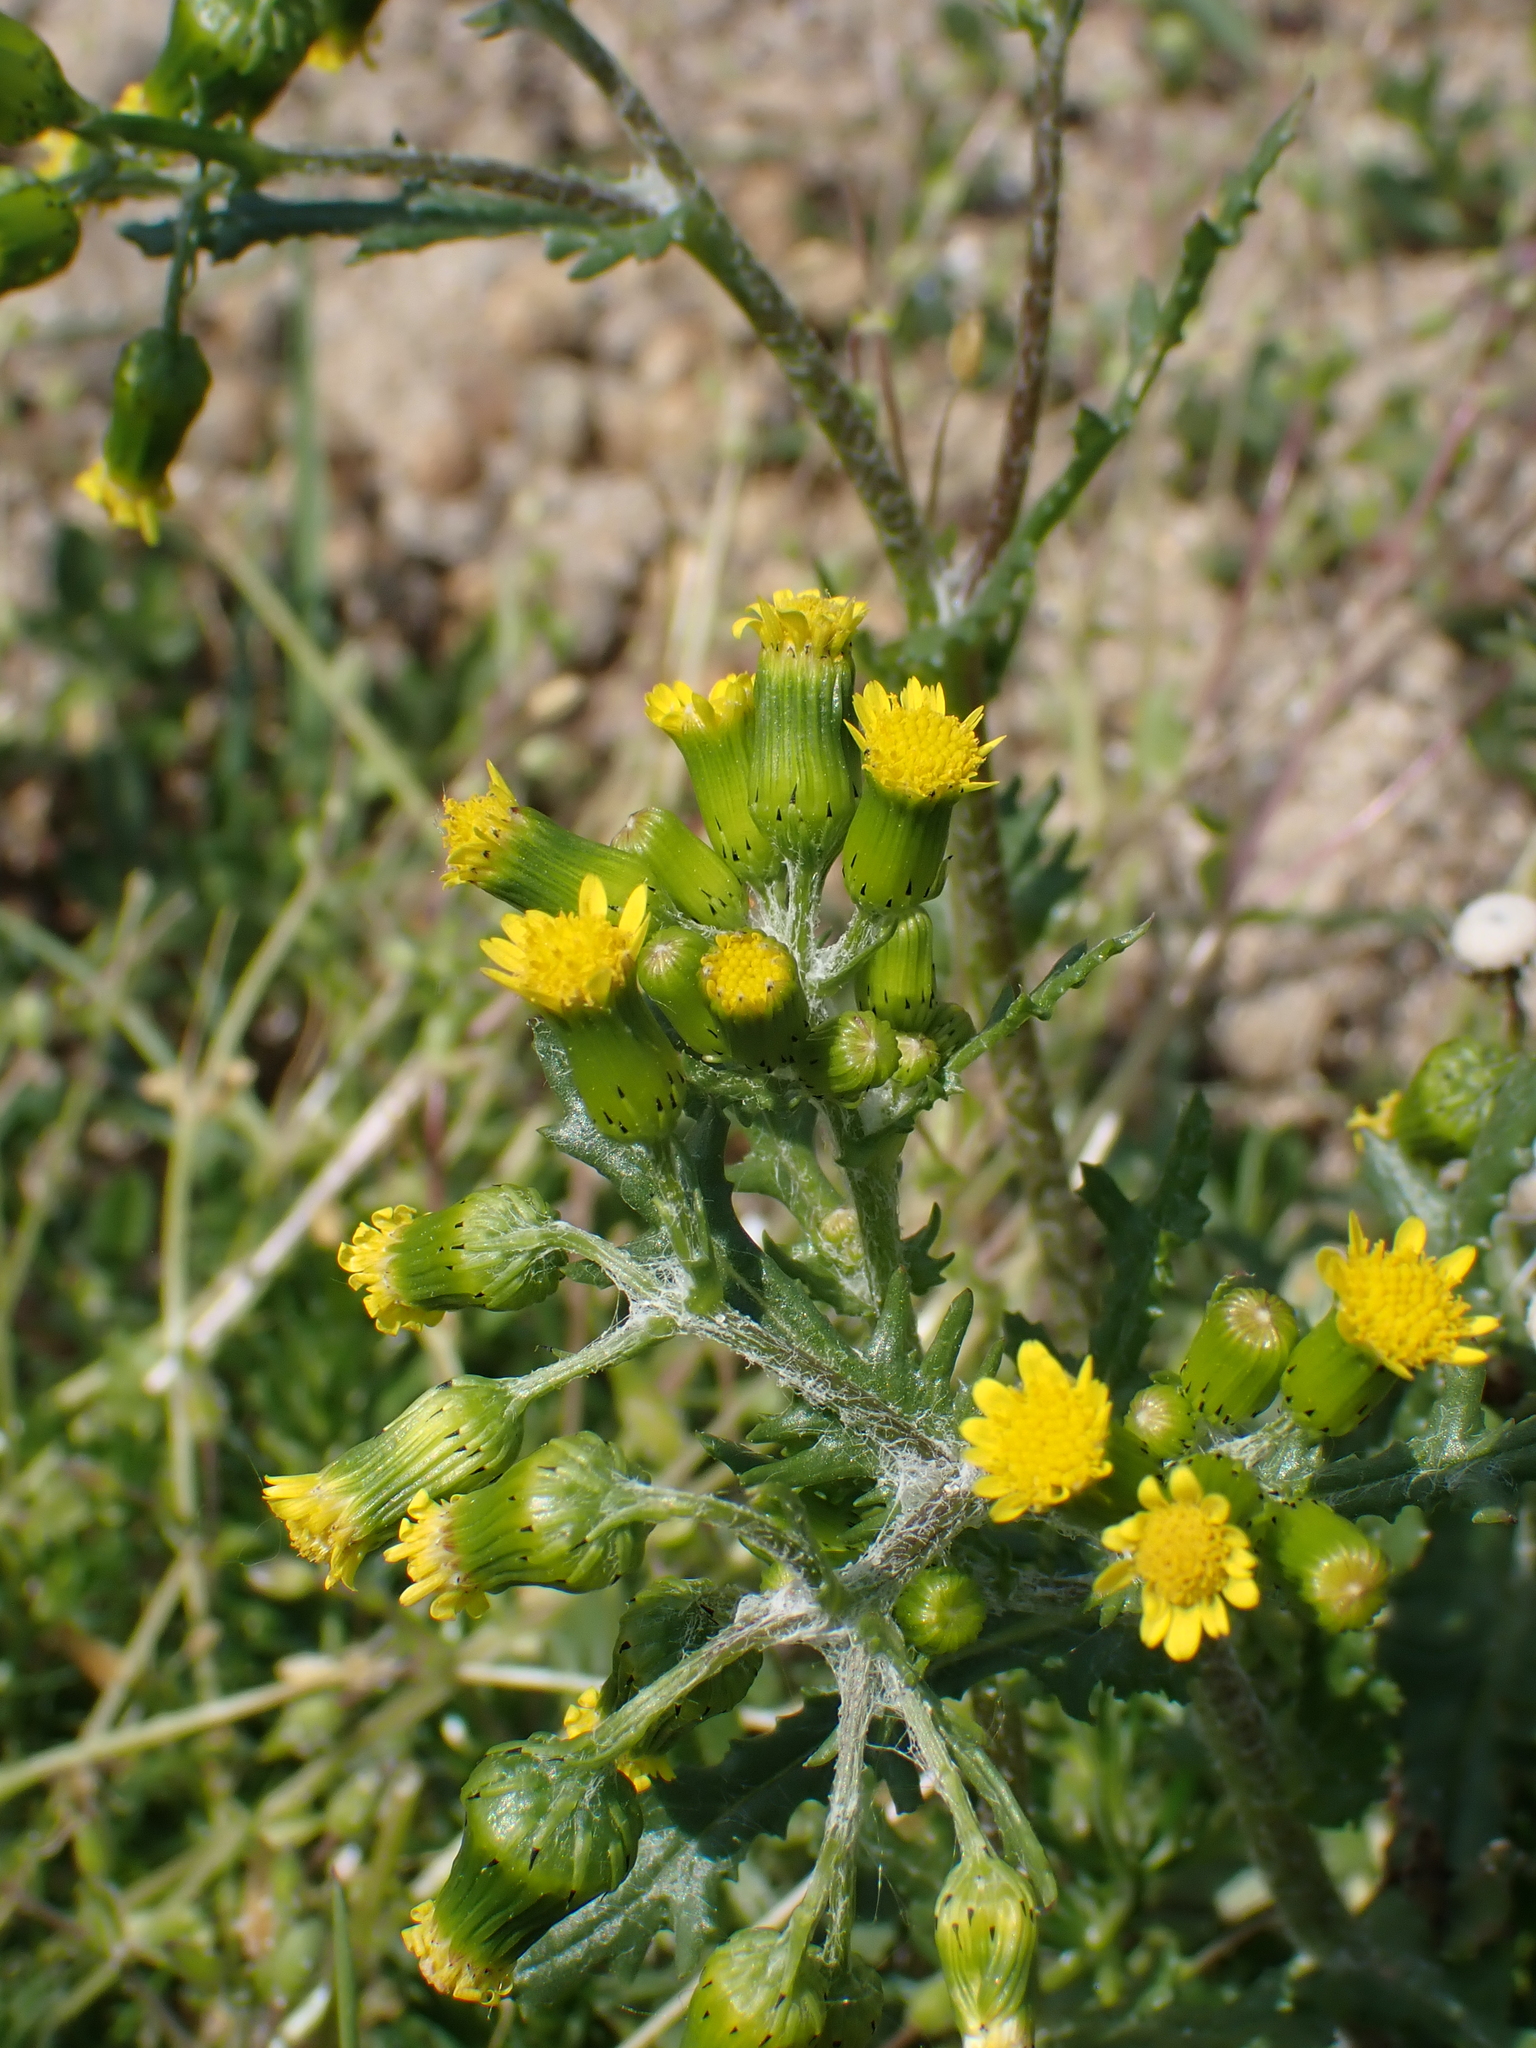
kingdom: Plantae
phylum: Tracheophyta
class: Magnoliopsida
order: Asterales
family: Asteraceae
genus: Senecio
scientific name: Senecio vulgaris
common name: Old-man-in-the-spring
